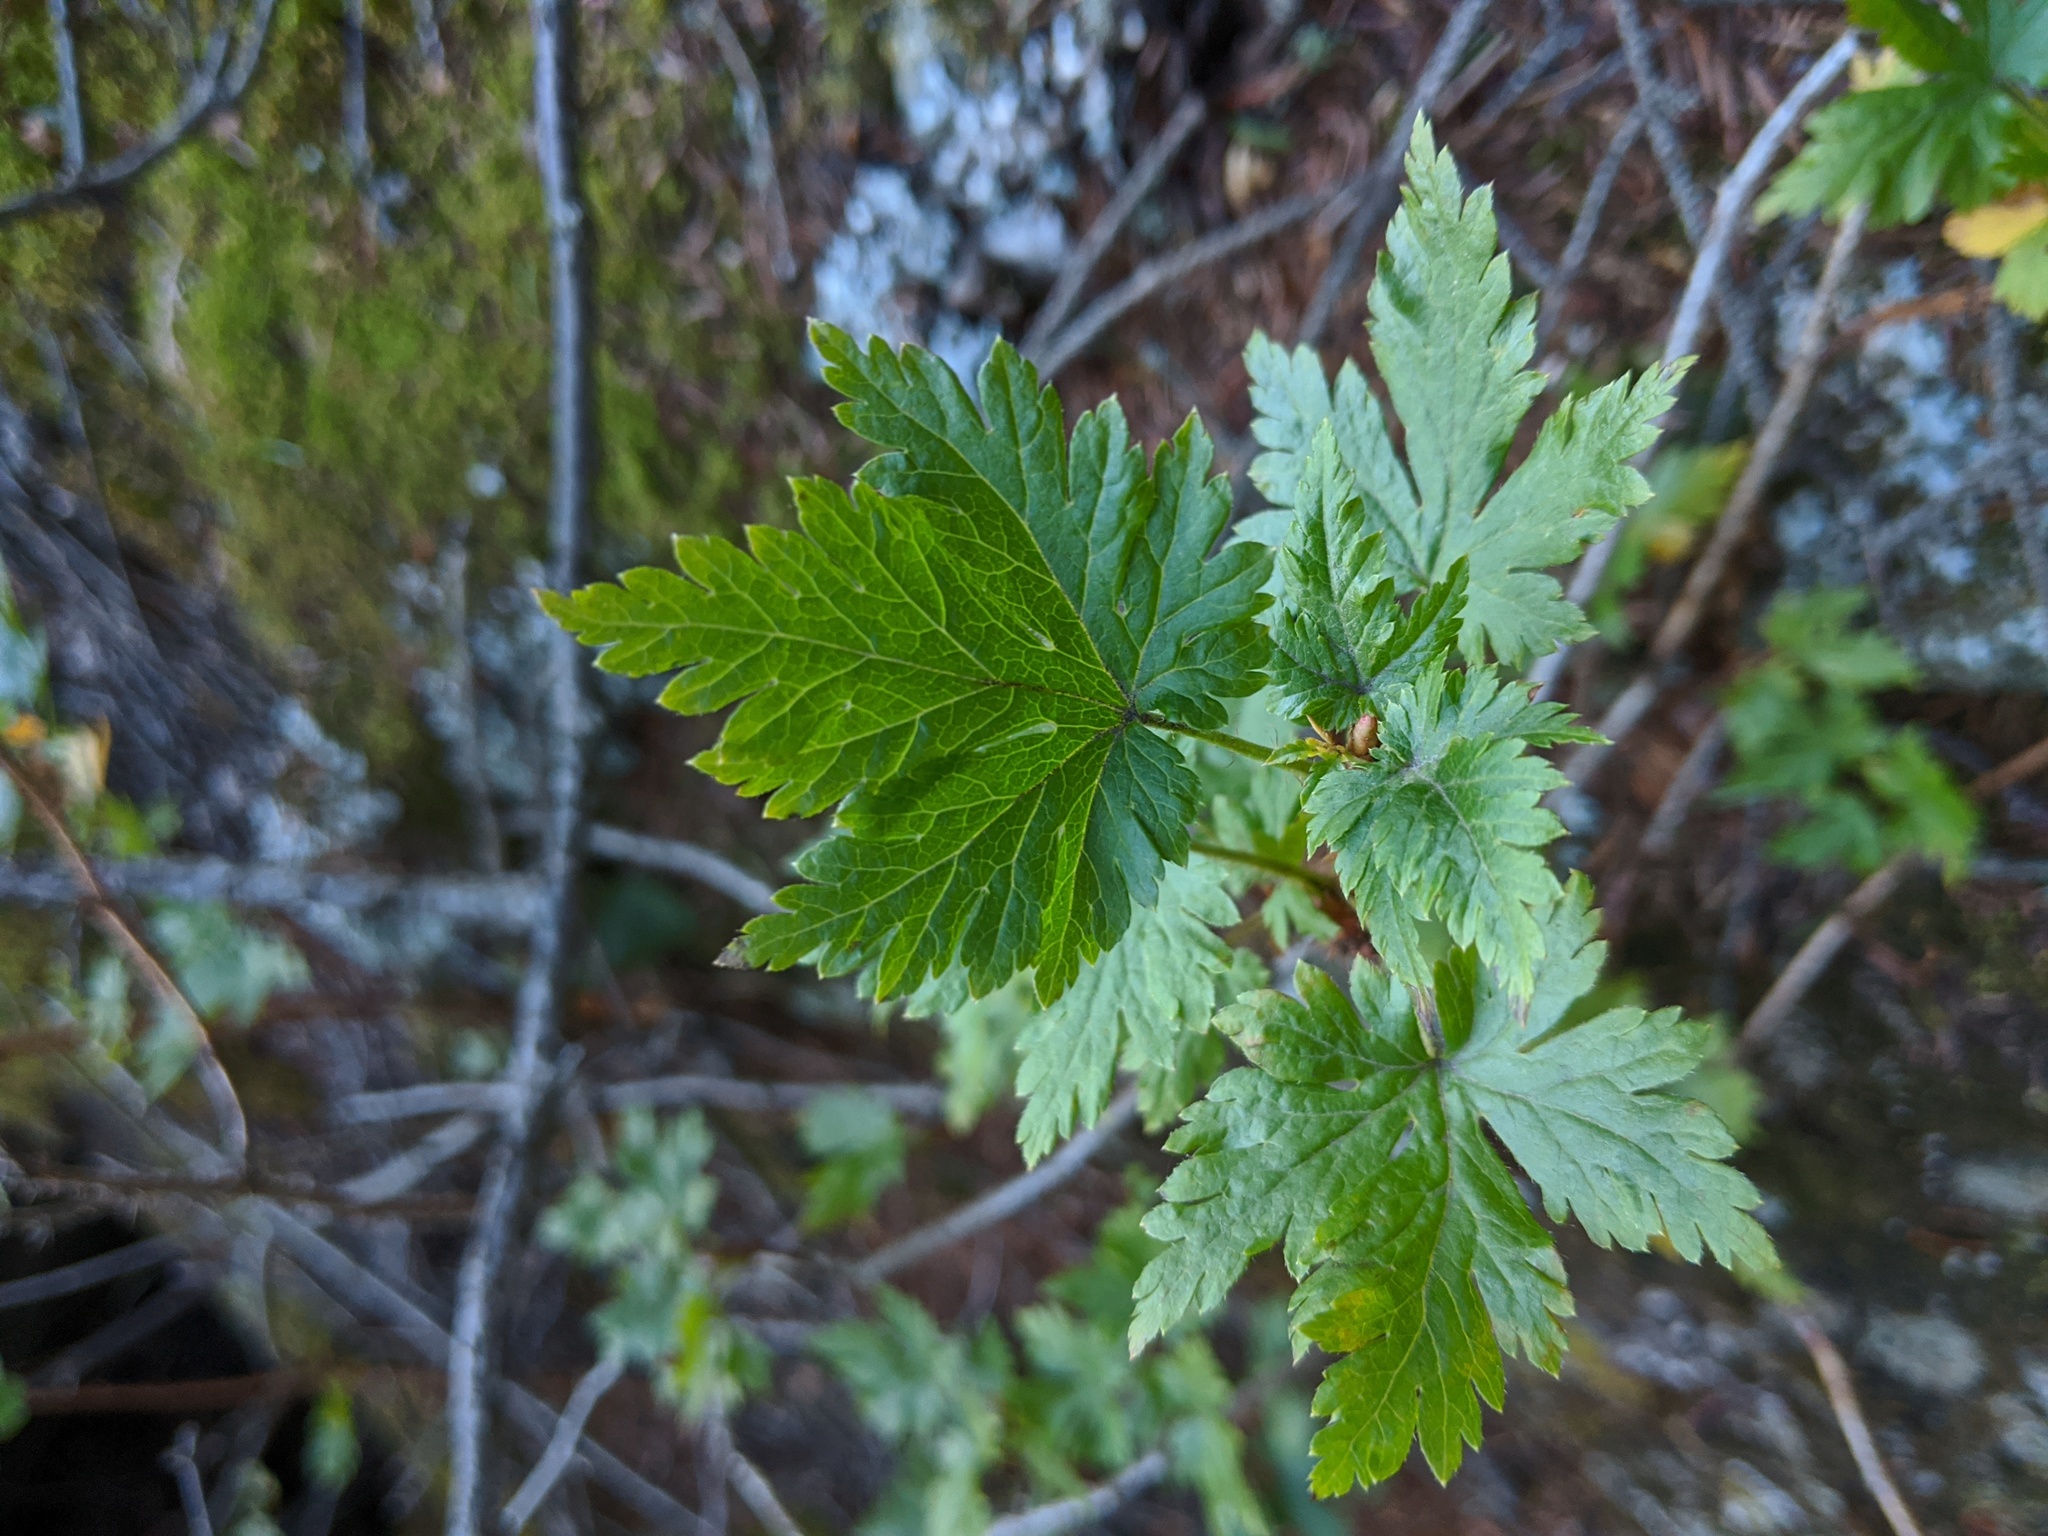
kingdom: Plantae
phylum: Tracheophyta
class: Magnoliopsida
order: Saxifragales
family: Grossulariaceae
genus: Ribes
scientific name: Ribes lacustre
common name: Black gooseberry
